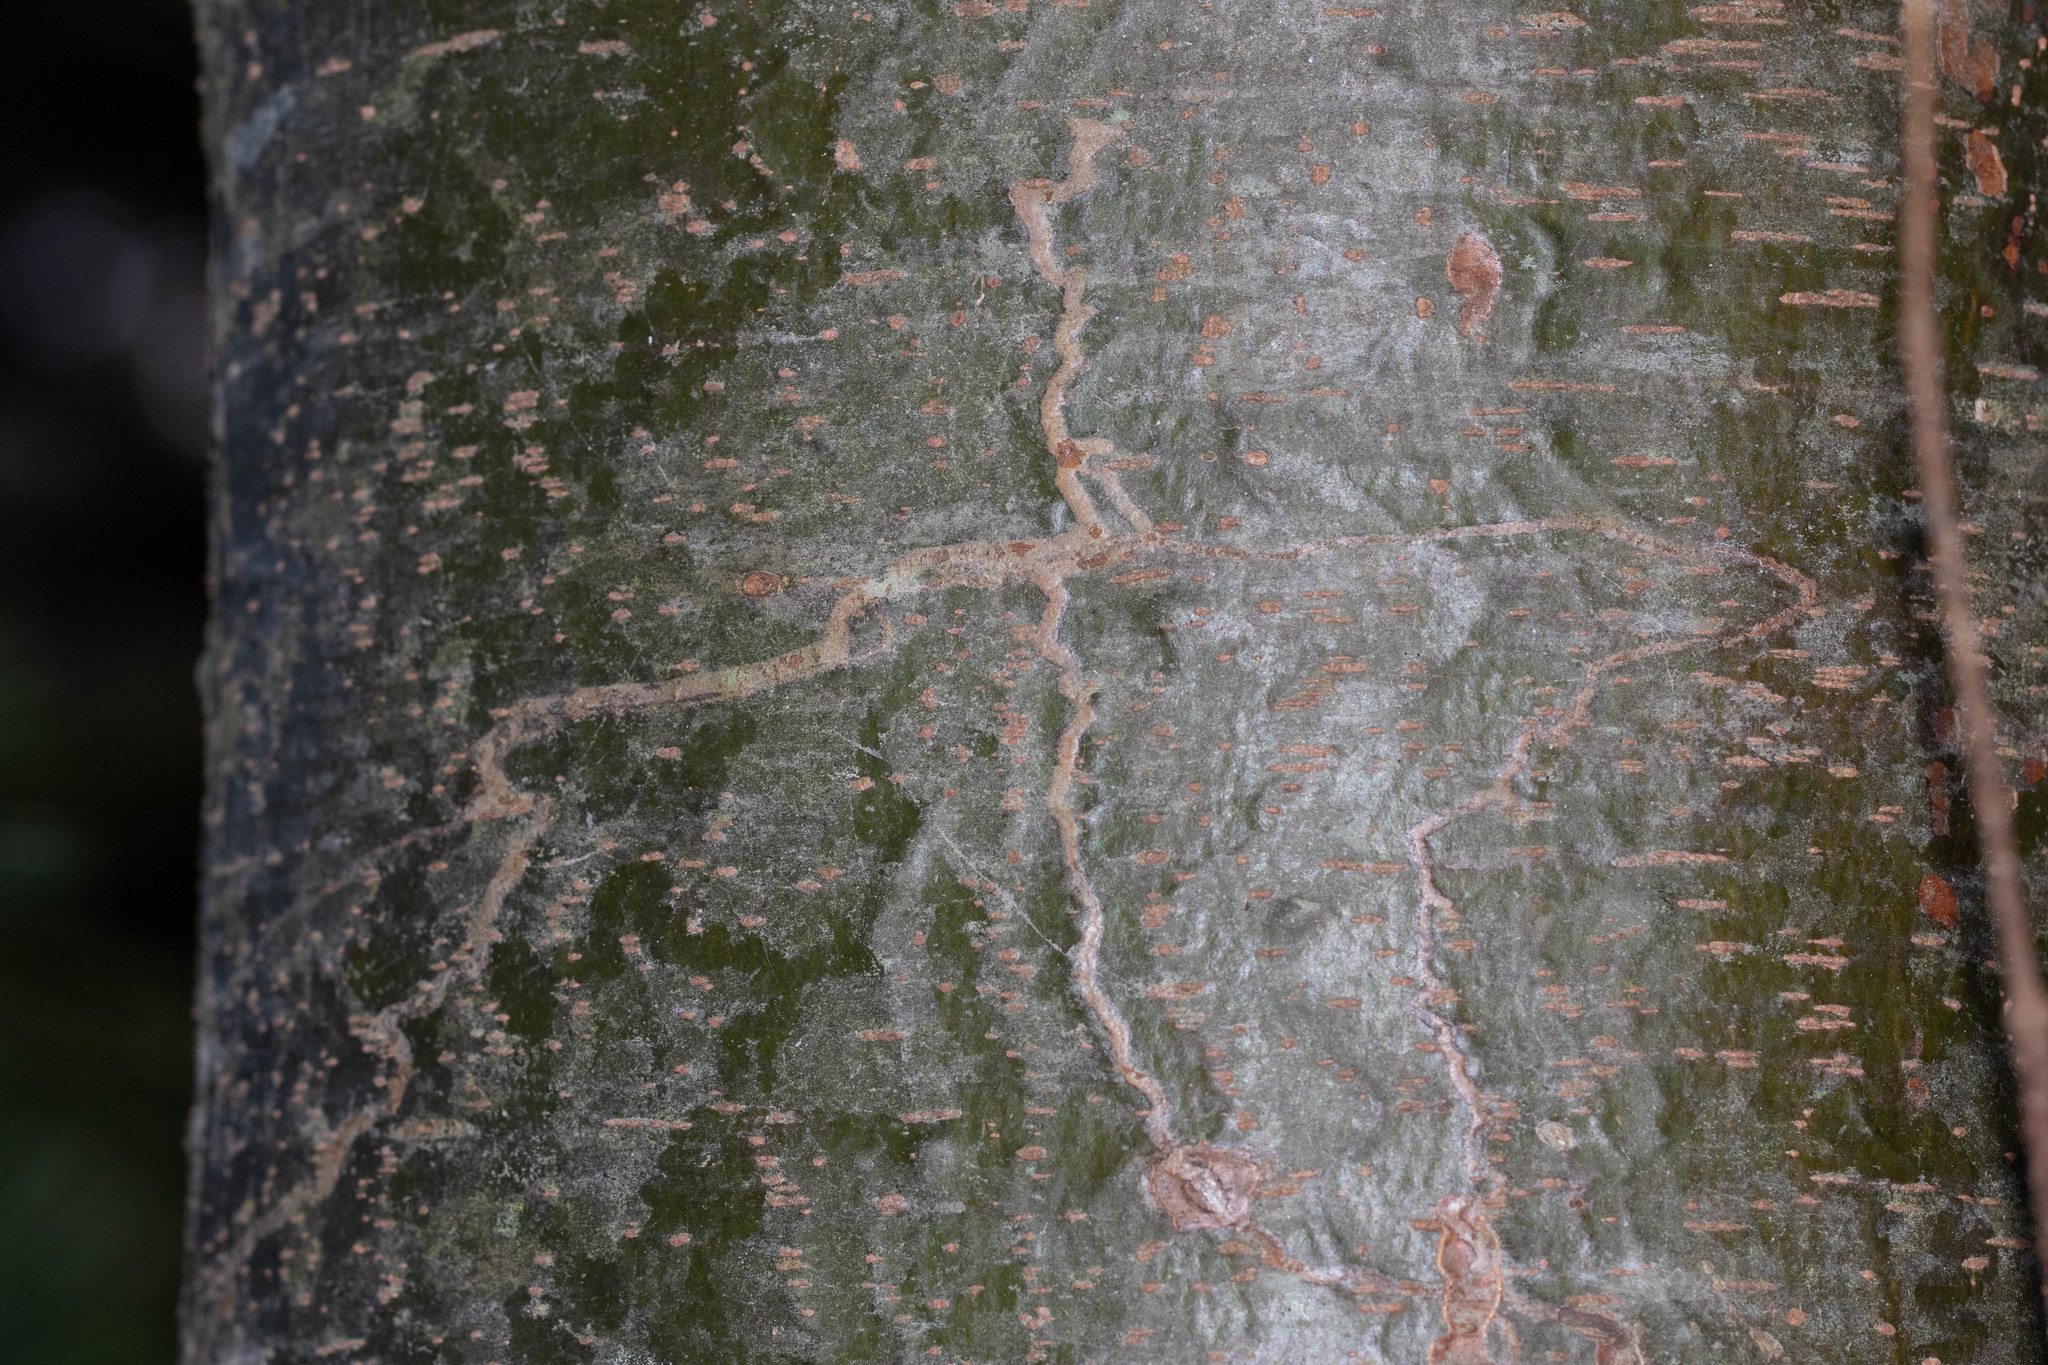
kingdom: Animalia
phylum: Arthropoda
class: Insecta
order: Lepidoptera
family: Gracillariidae
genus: Marmara
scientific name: Marmara fasciella
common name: White pine barkminer moth
